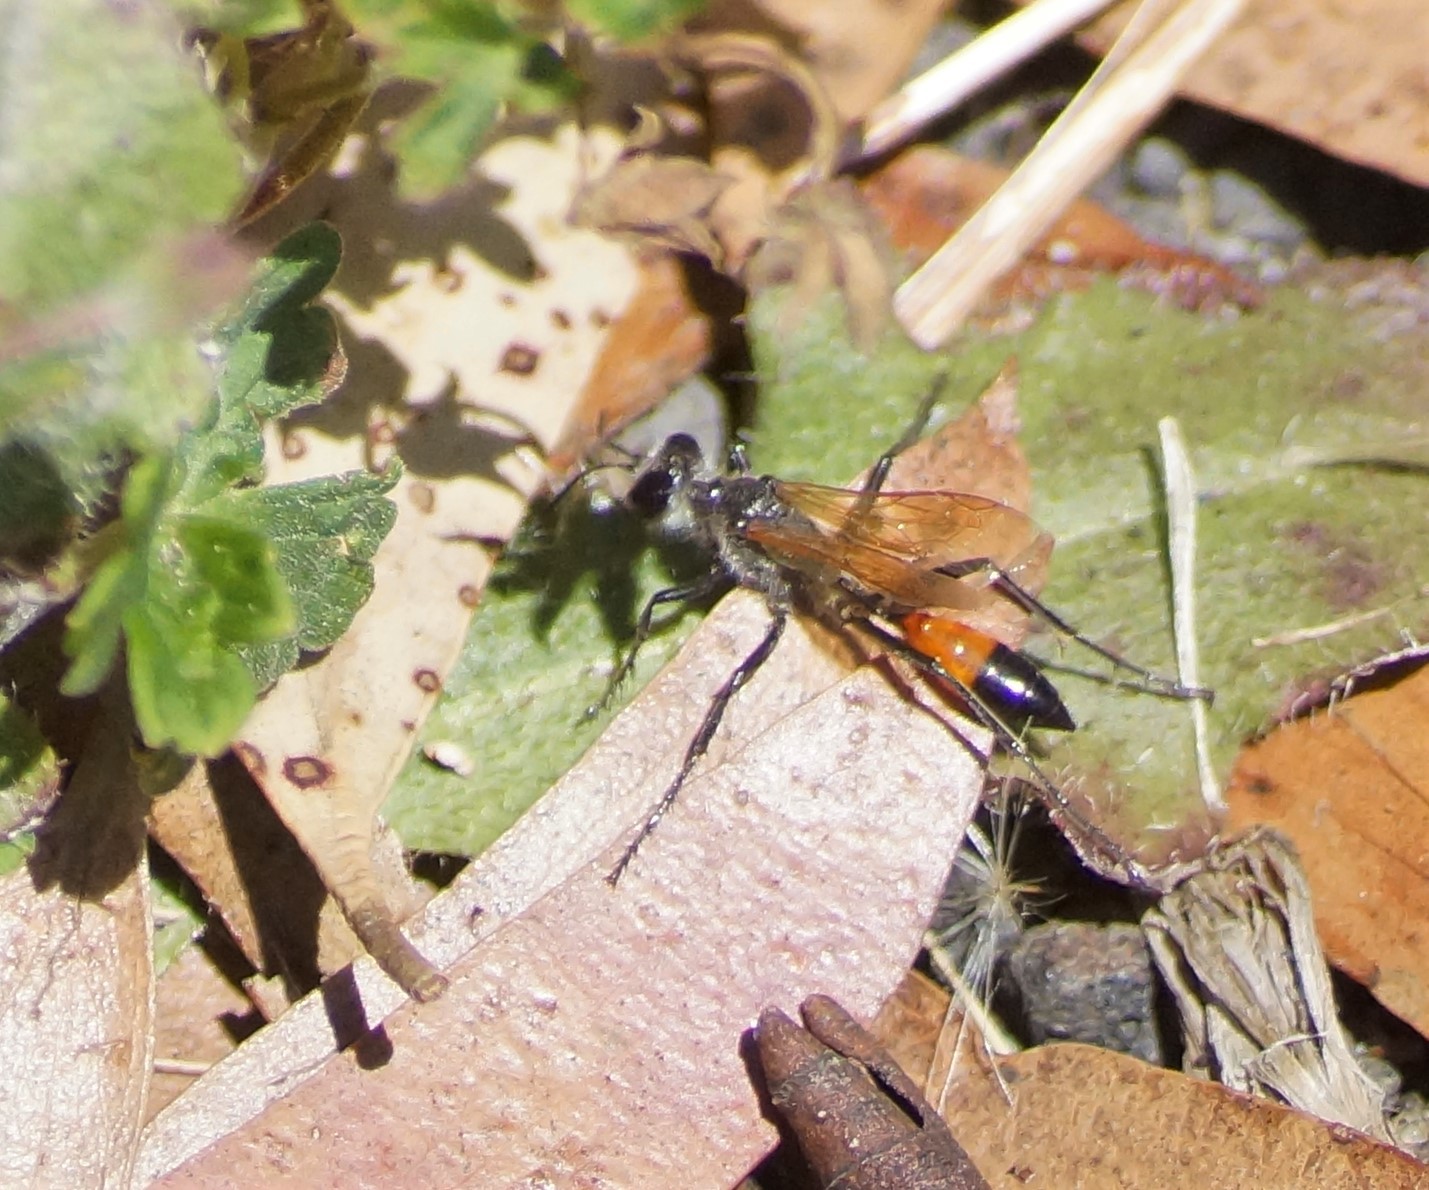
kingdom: Animalia
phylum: Arthropoda
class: Insecta
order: Hymenoptera
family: Sphecidae
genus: Podalonia
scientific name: Podalonia tydei
